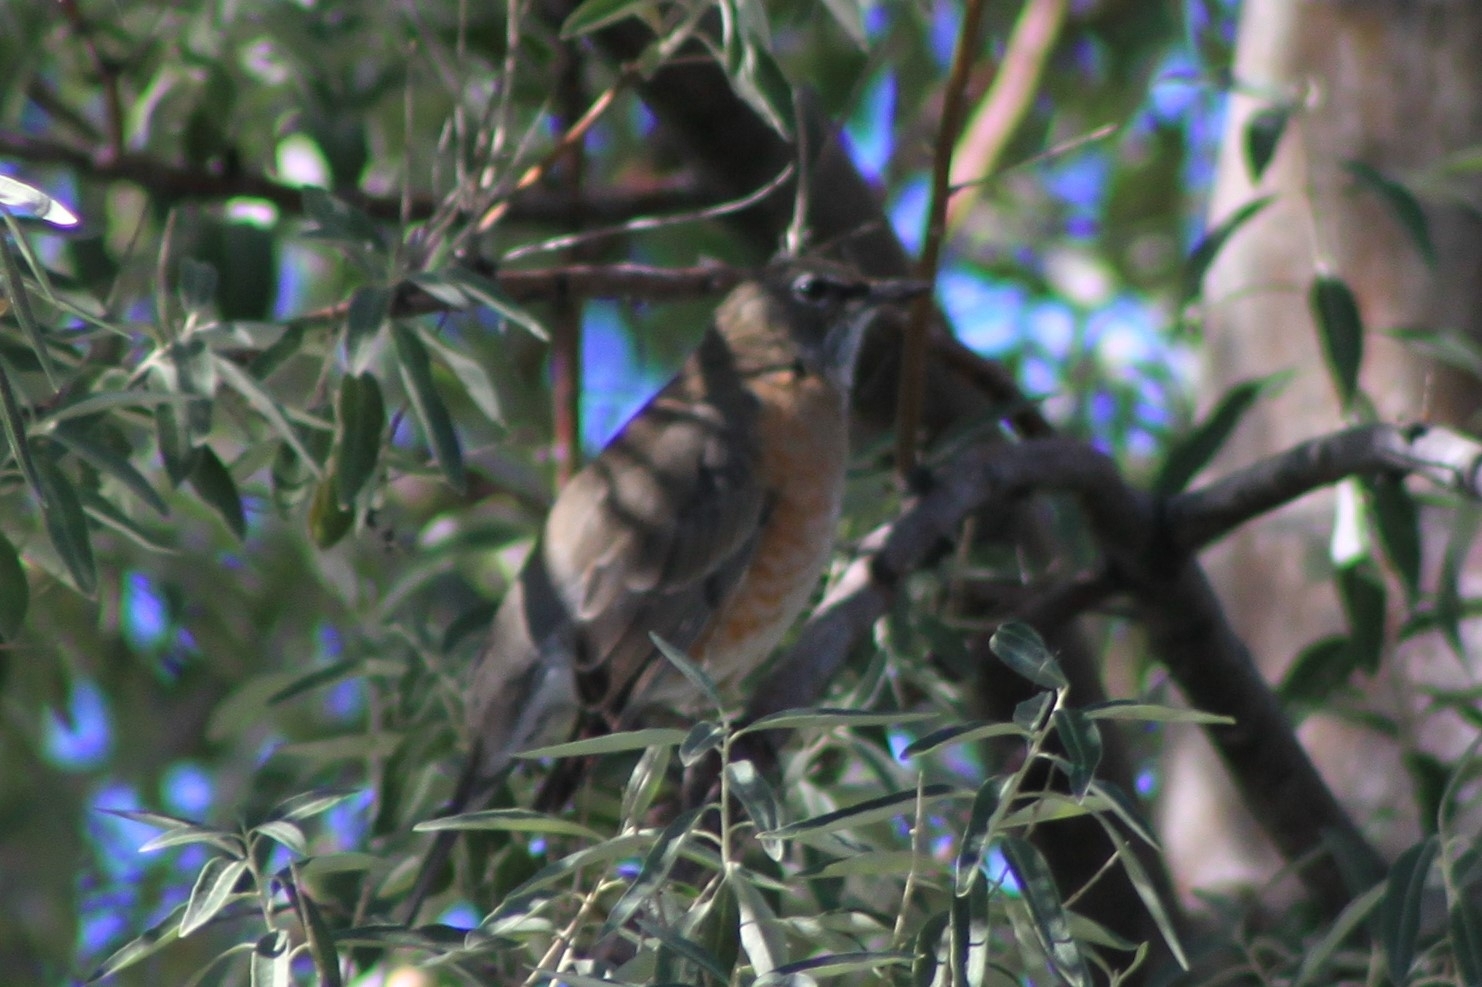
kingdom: Animalia
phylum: Chordata
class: Aves
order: Passeriformes
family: Turdidae
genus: Turdus
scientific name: Turdus migratorius
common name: American robin
